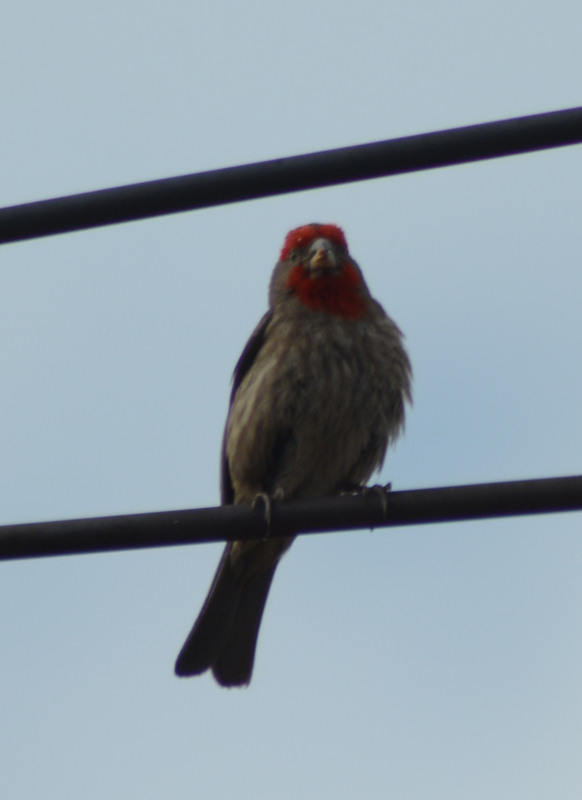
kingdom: Animalia
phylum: Chordata
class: Aves
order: Passeriformes
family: Fringillidae
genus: Haemorhous
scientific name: Haemorhous mexicanus
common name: House finch
